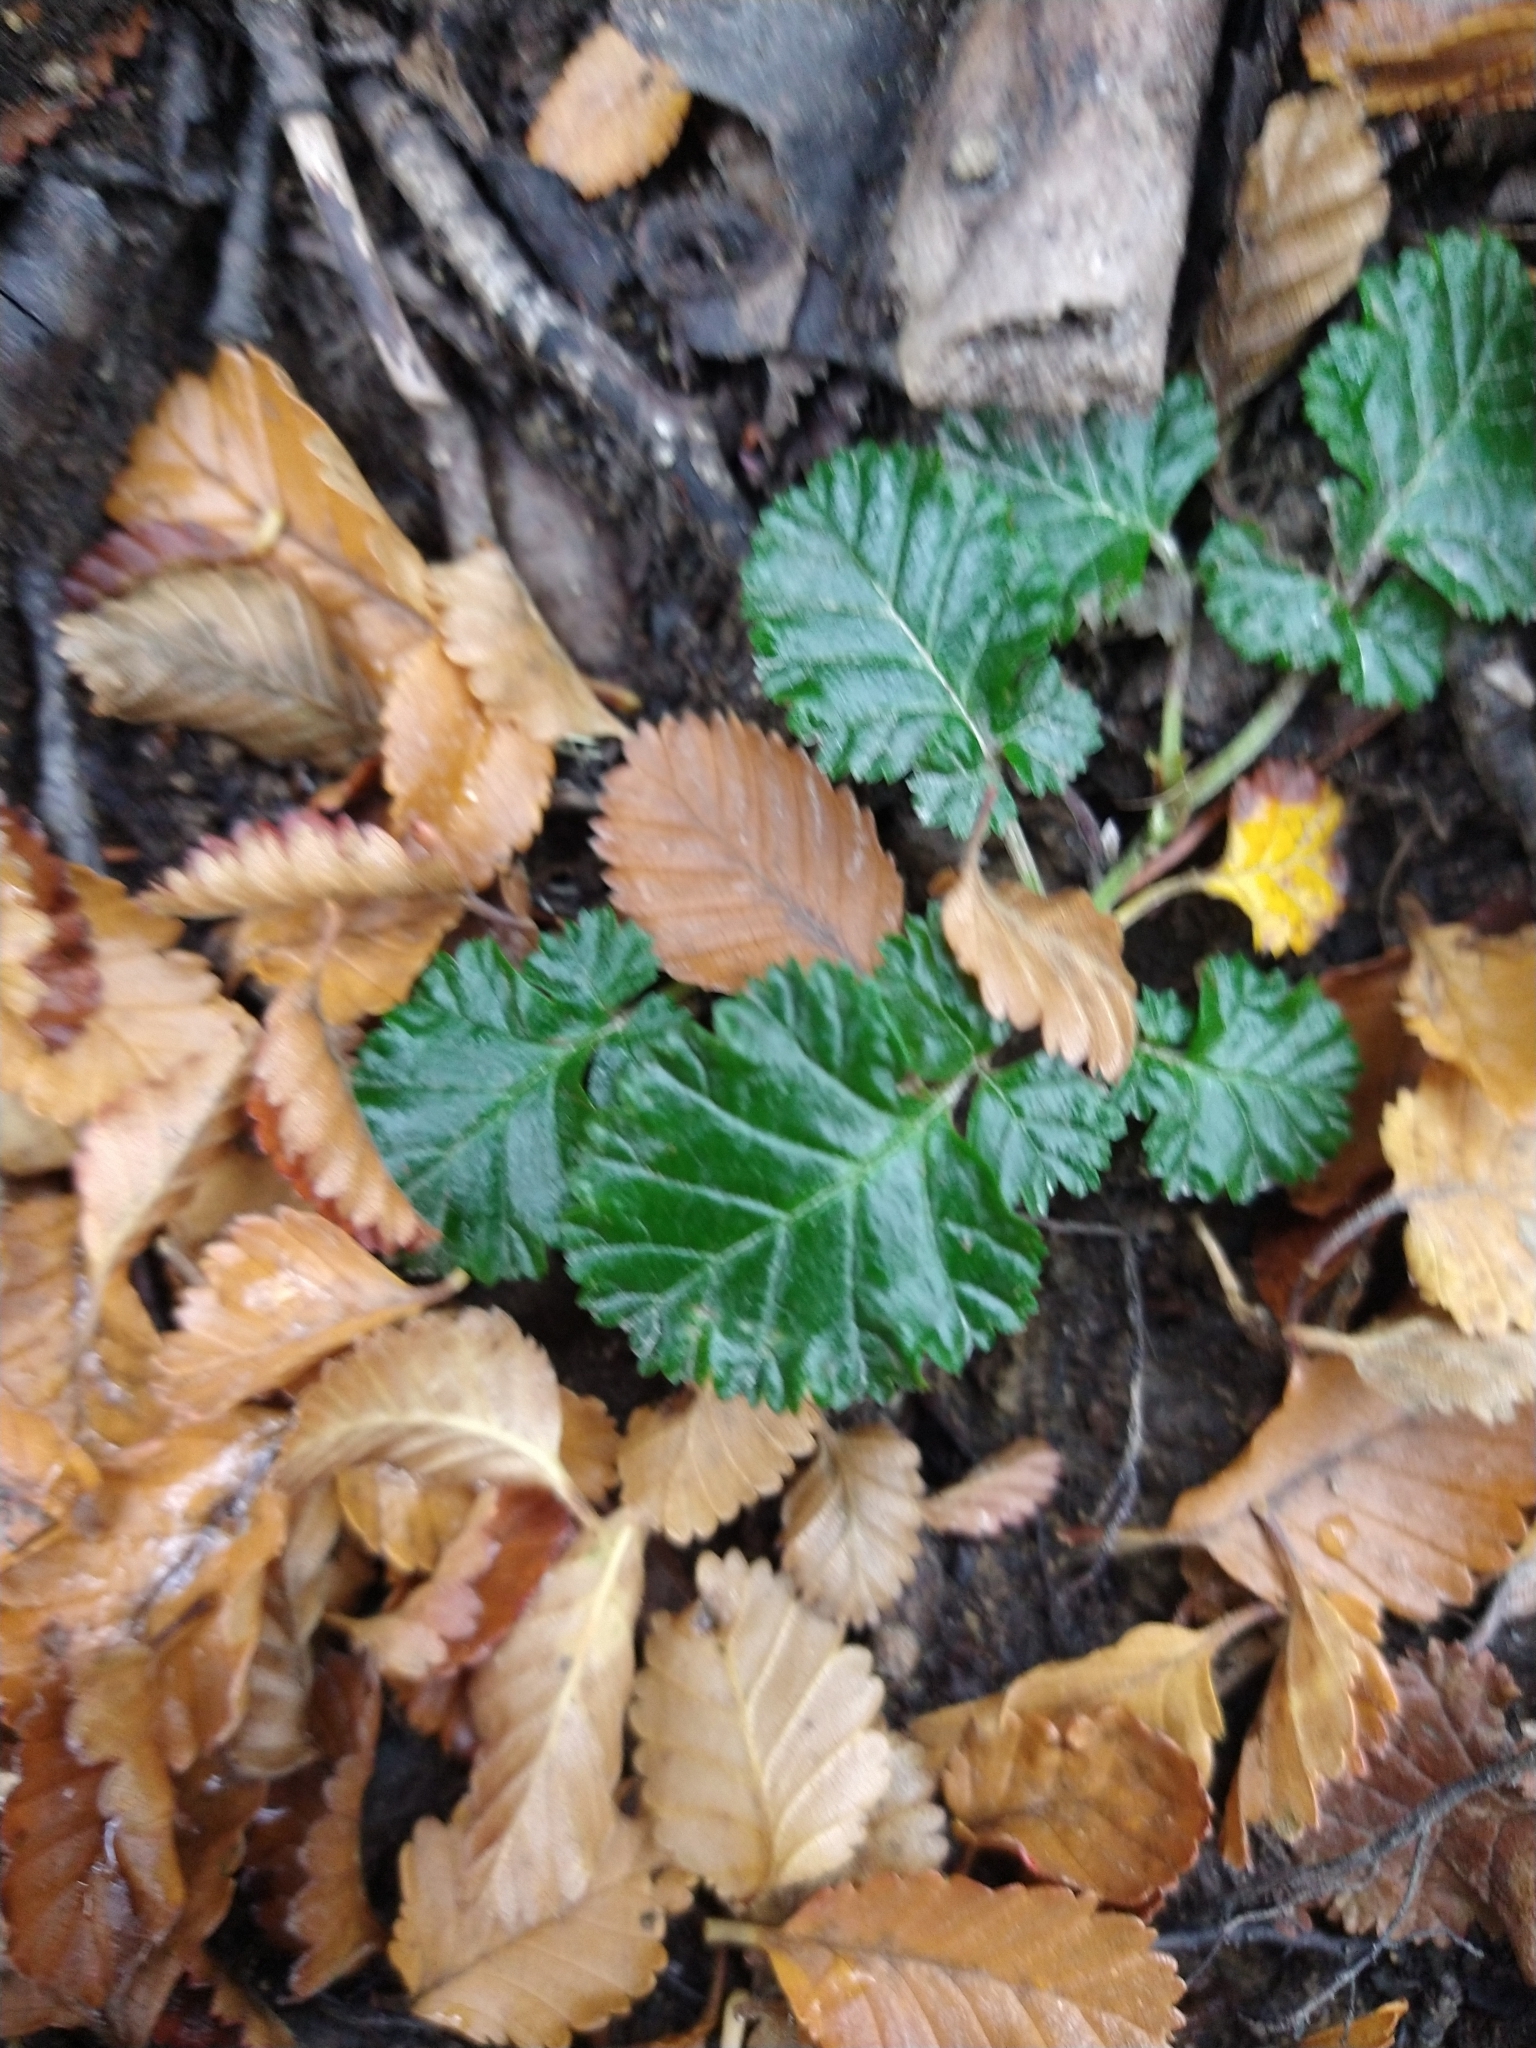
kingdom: Plantae
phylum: Tracheophyta
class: Magnoliopsida
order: Rosales
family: Rosaceae
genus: Rubus
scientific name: Rubus geoides
